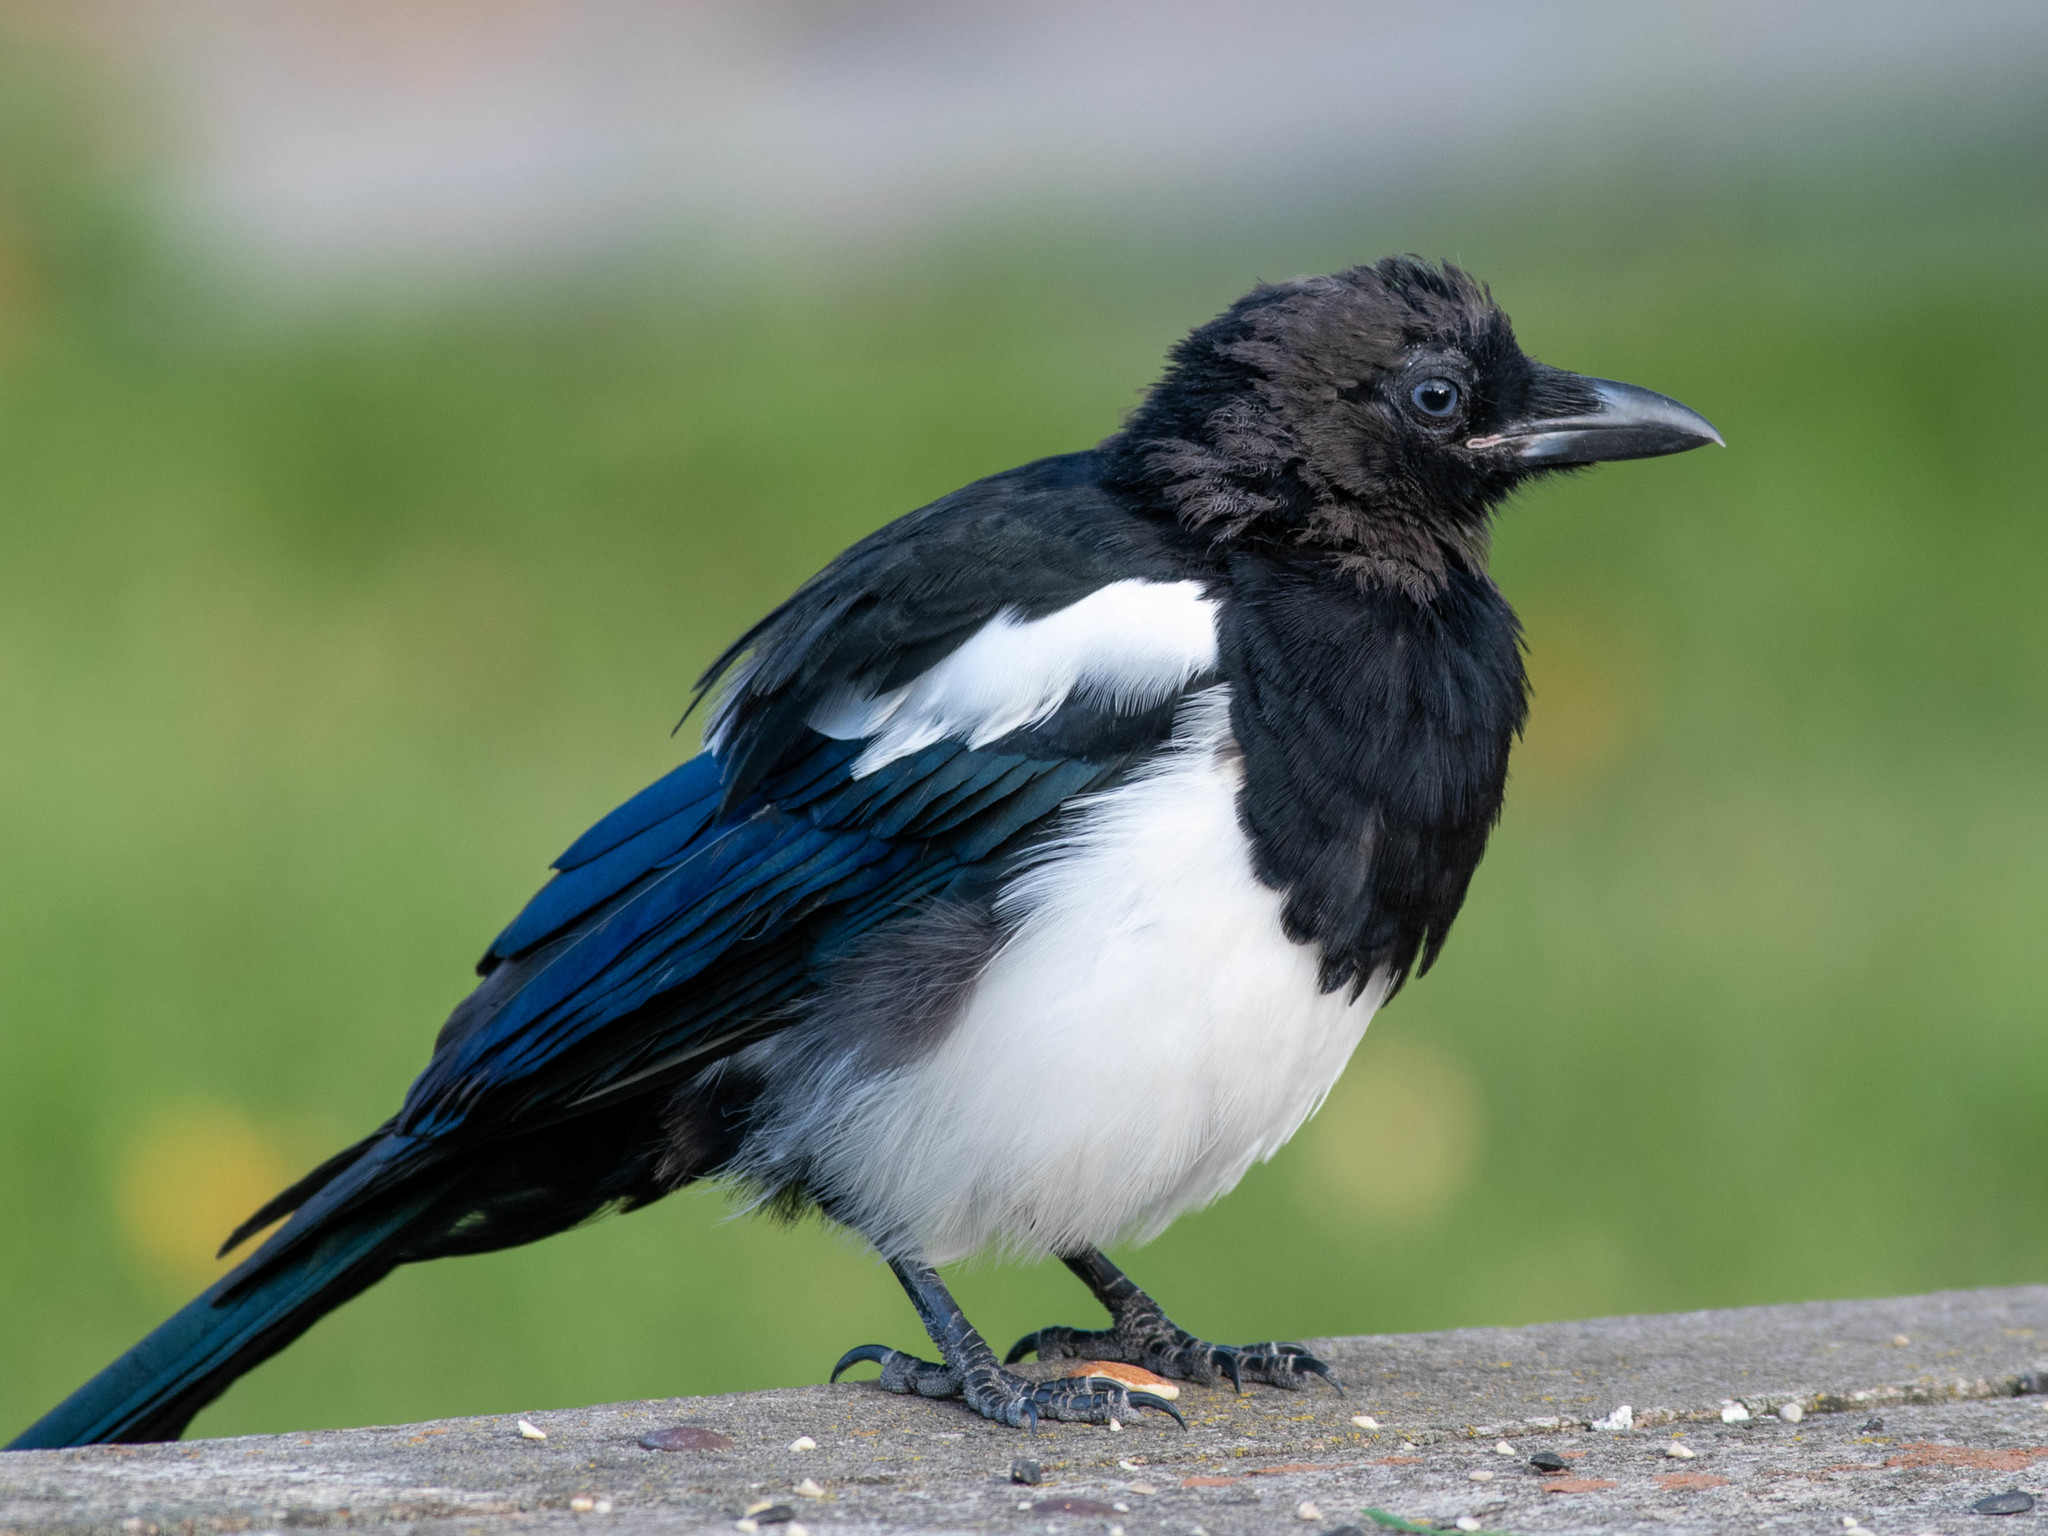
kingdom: Animalia
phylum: Chordata
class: Aves
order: Passeriformes
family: Corvidae
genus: Pica
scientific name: Pica hudsonia
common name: Black-billed magpie
